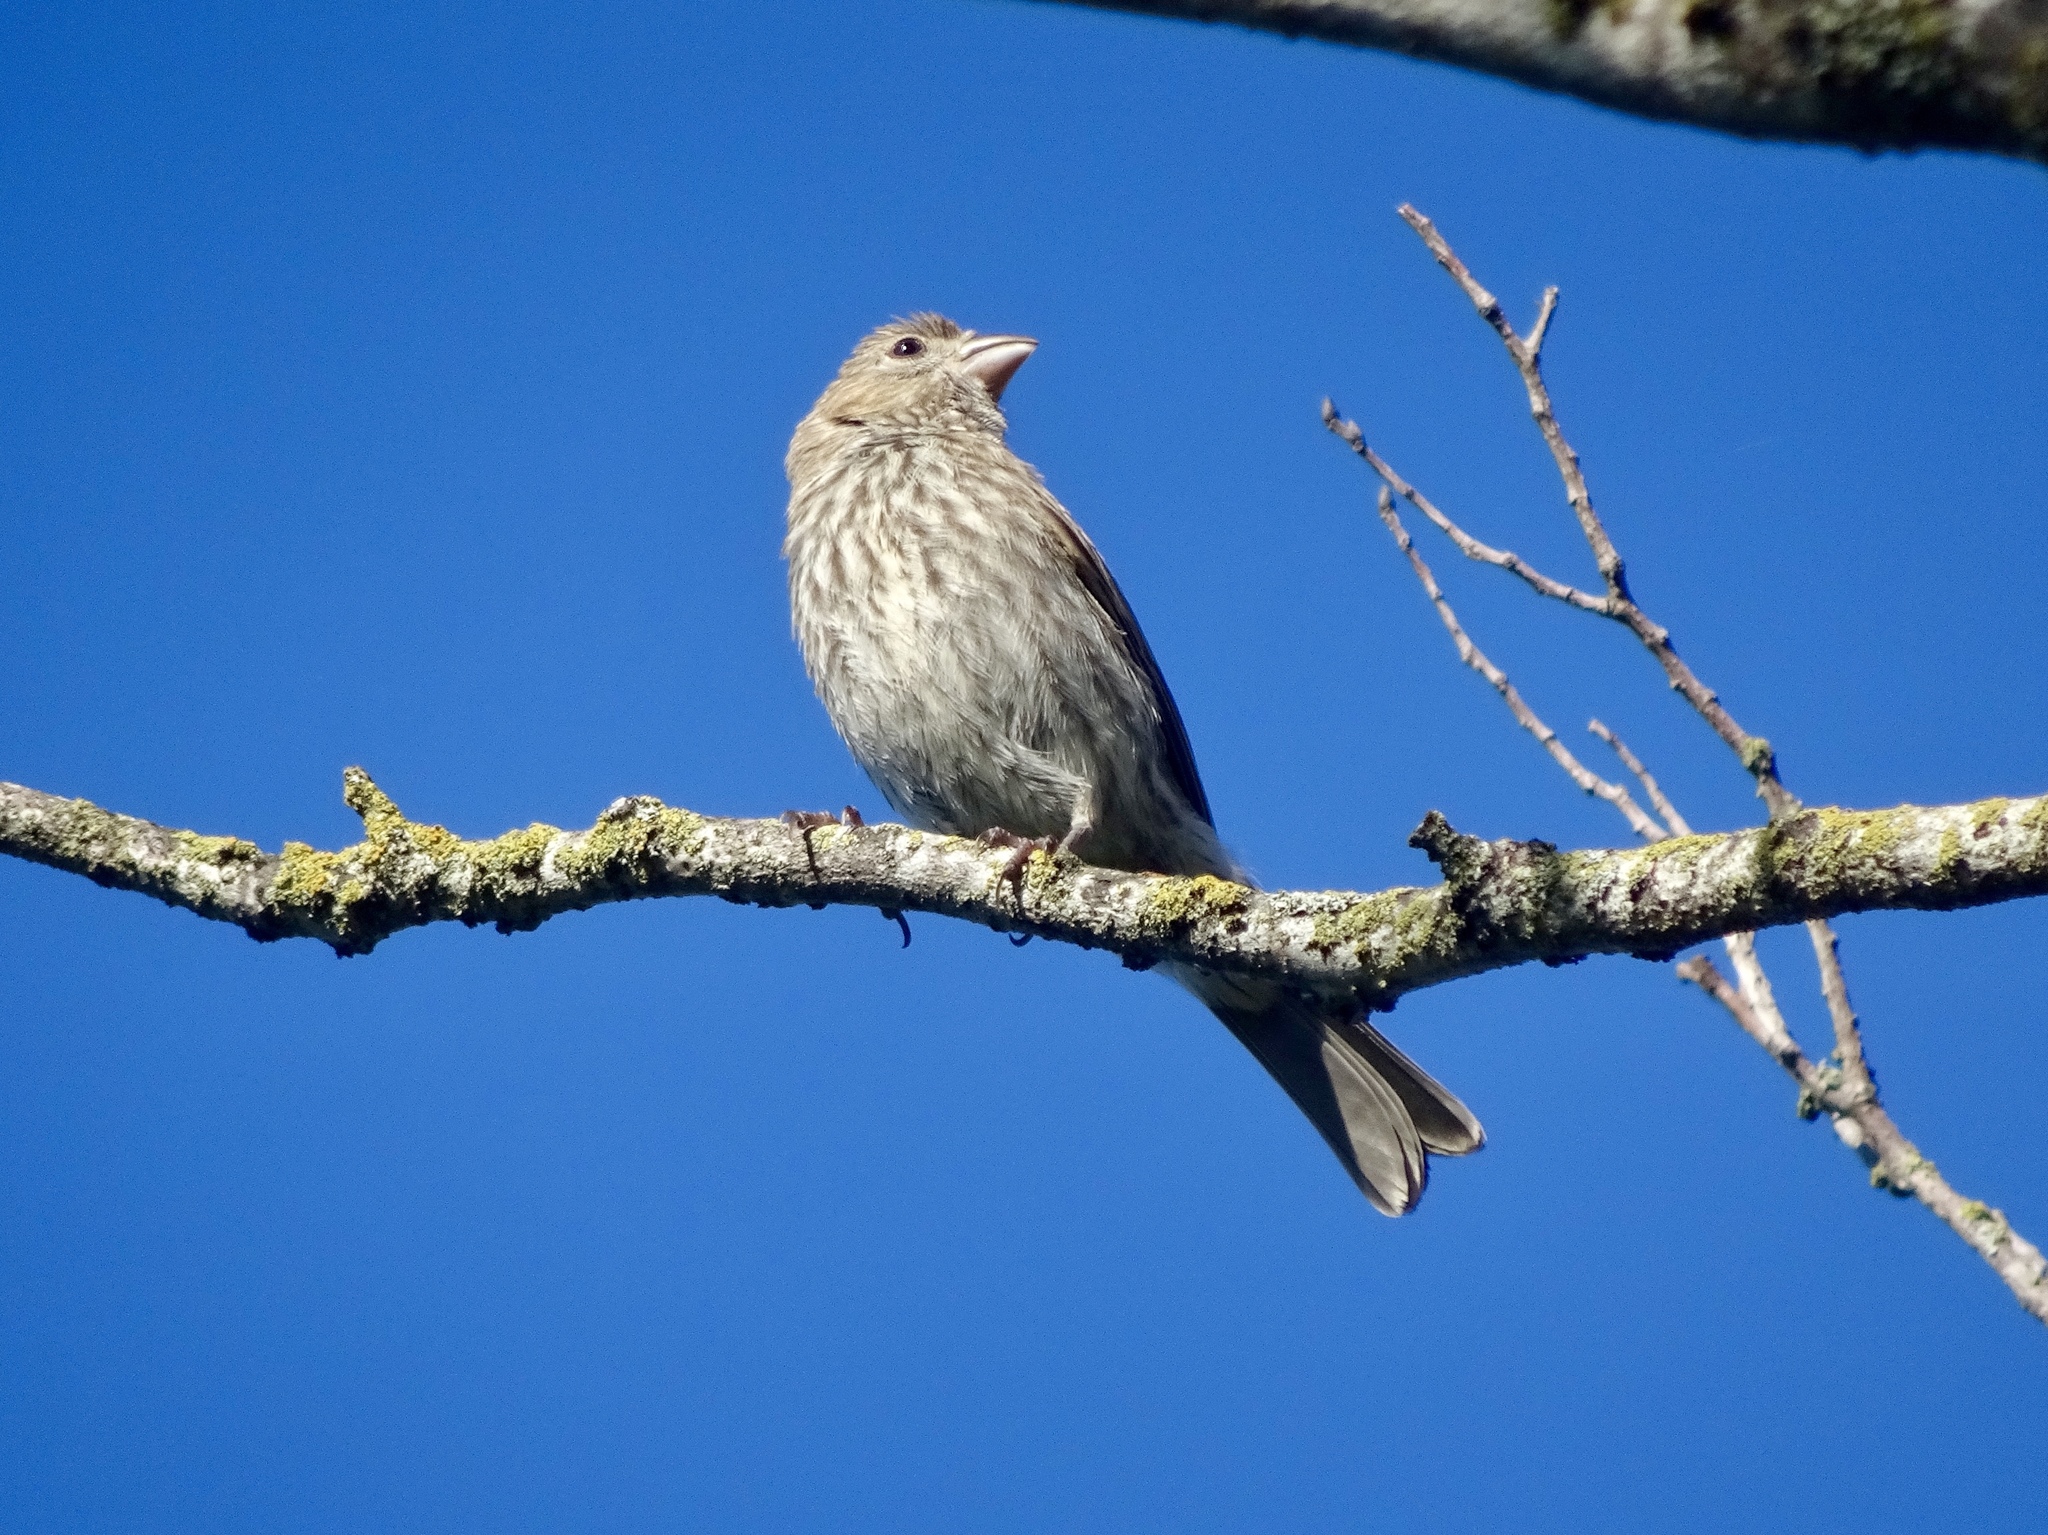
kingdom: Animalia
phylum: Chordata
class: Aves
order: Passeriformes
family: Fringillidae
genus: Haemorhous
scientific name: Haemorhous mexicanus
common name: House finch
